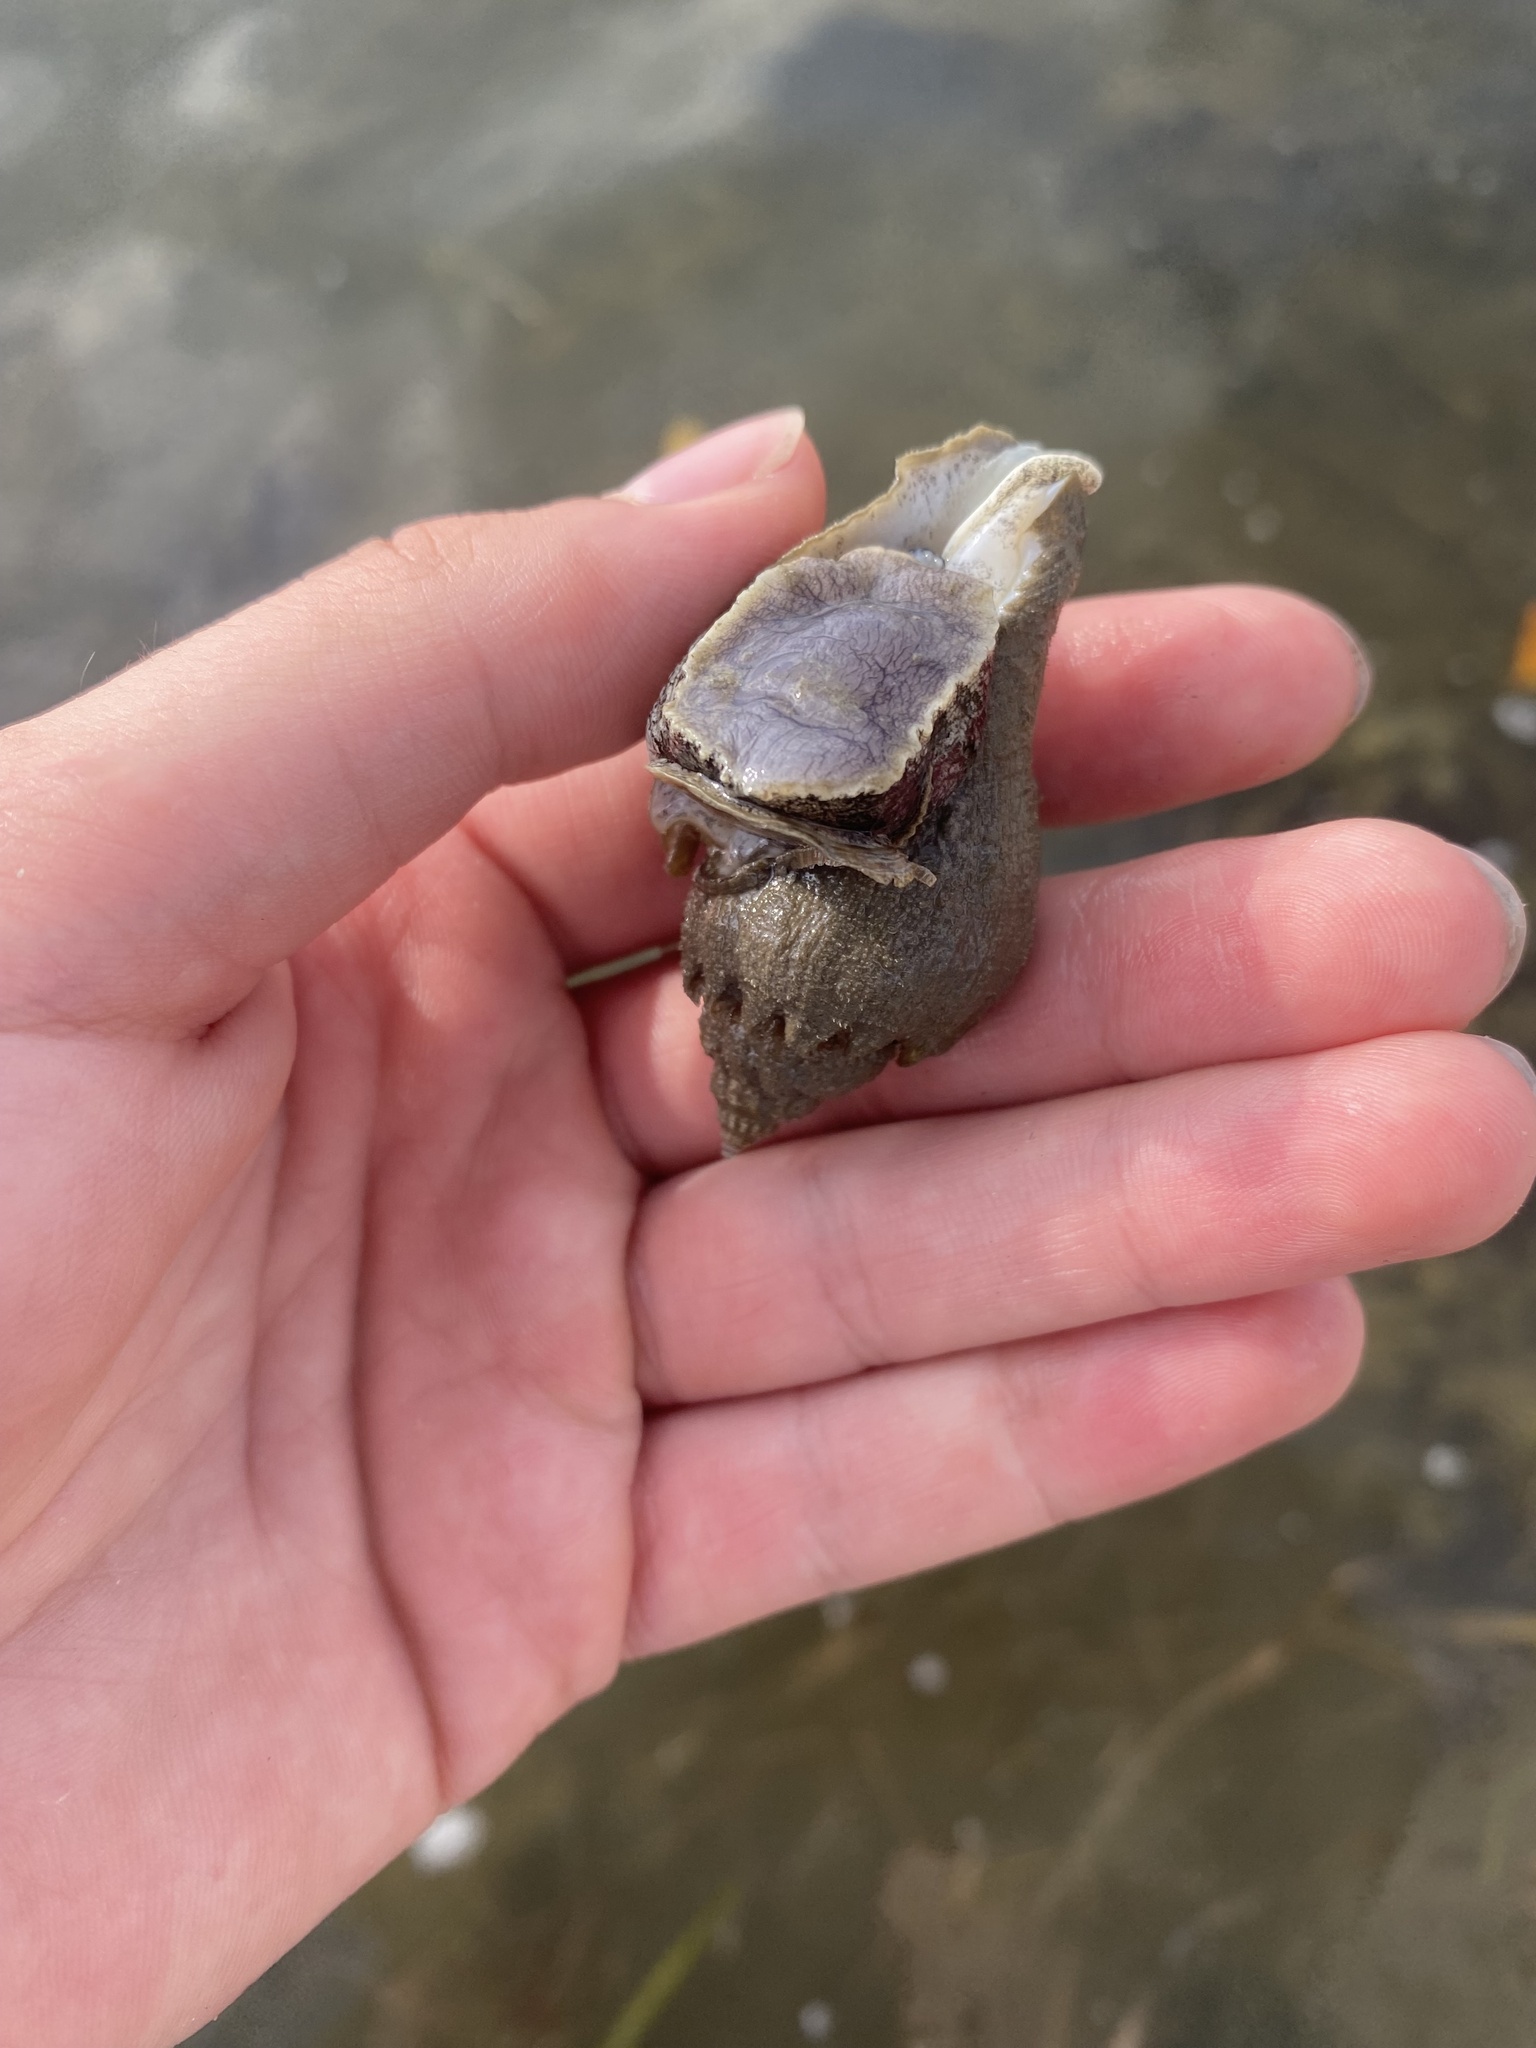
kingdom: Animalia
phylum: Mollusca
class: Gastropoda
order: Neogastropoda
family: Melongenidae
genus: Melongena
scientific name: Melongena corona
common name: American crown conch
